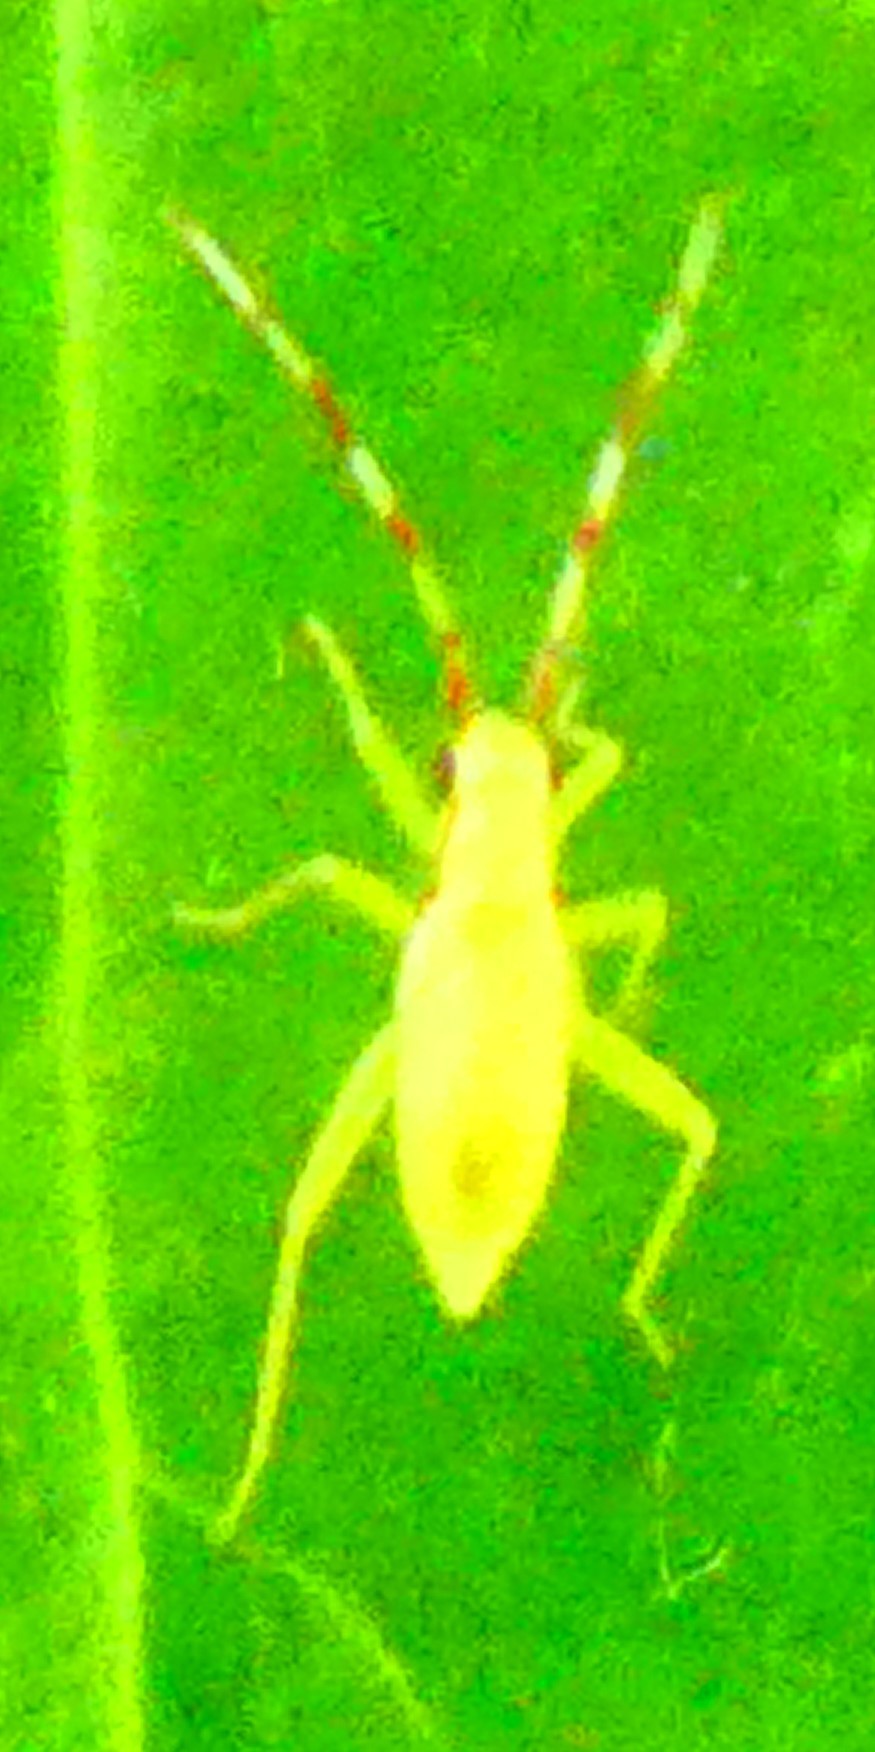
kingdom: Animalia
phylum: Arthropoda
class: Insecta
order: Hemiptera
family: Miridae
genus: Campyloneura
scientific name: Campyloneura virgula
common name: Predatory bug
